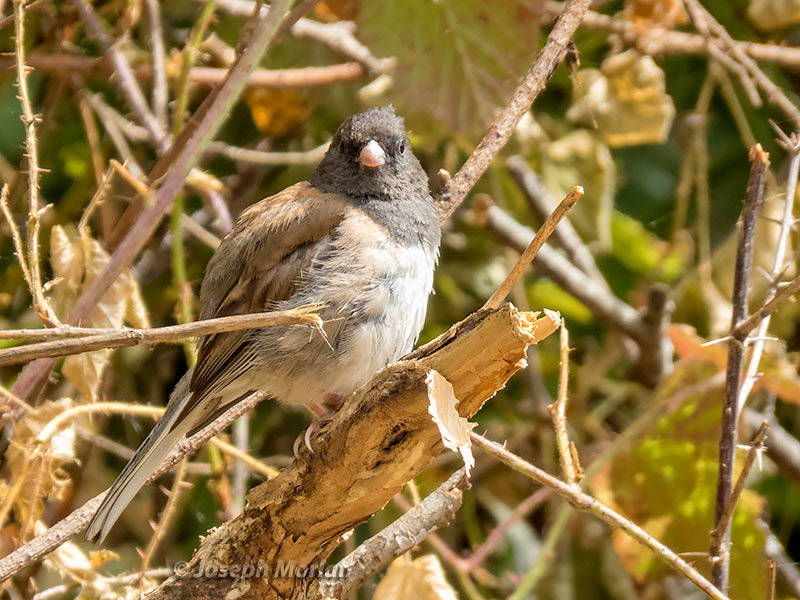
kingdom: Animalia
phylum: Chordata
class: Aves
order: Passeriformes
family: Passerellidae
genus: Junco
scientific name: Junco hyemalis
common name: Dark-eyed junco
